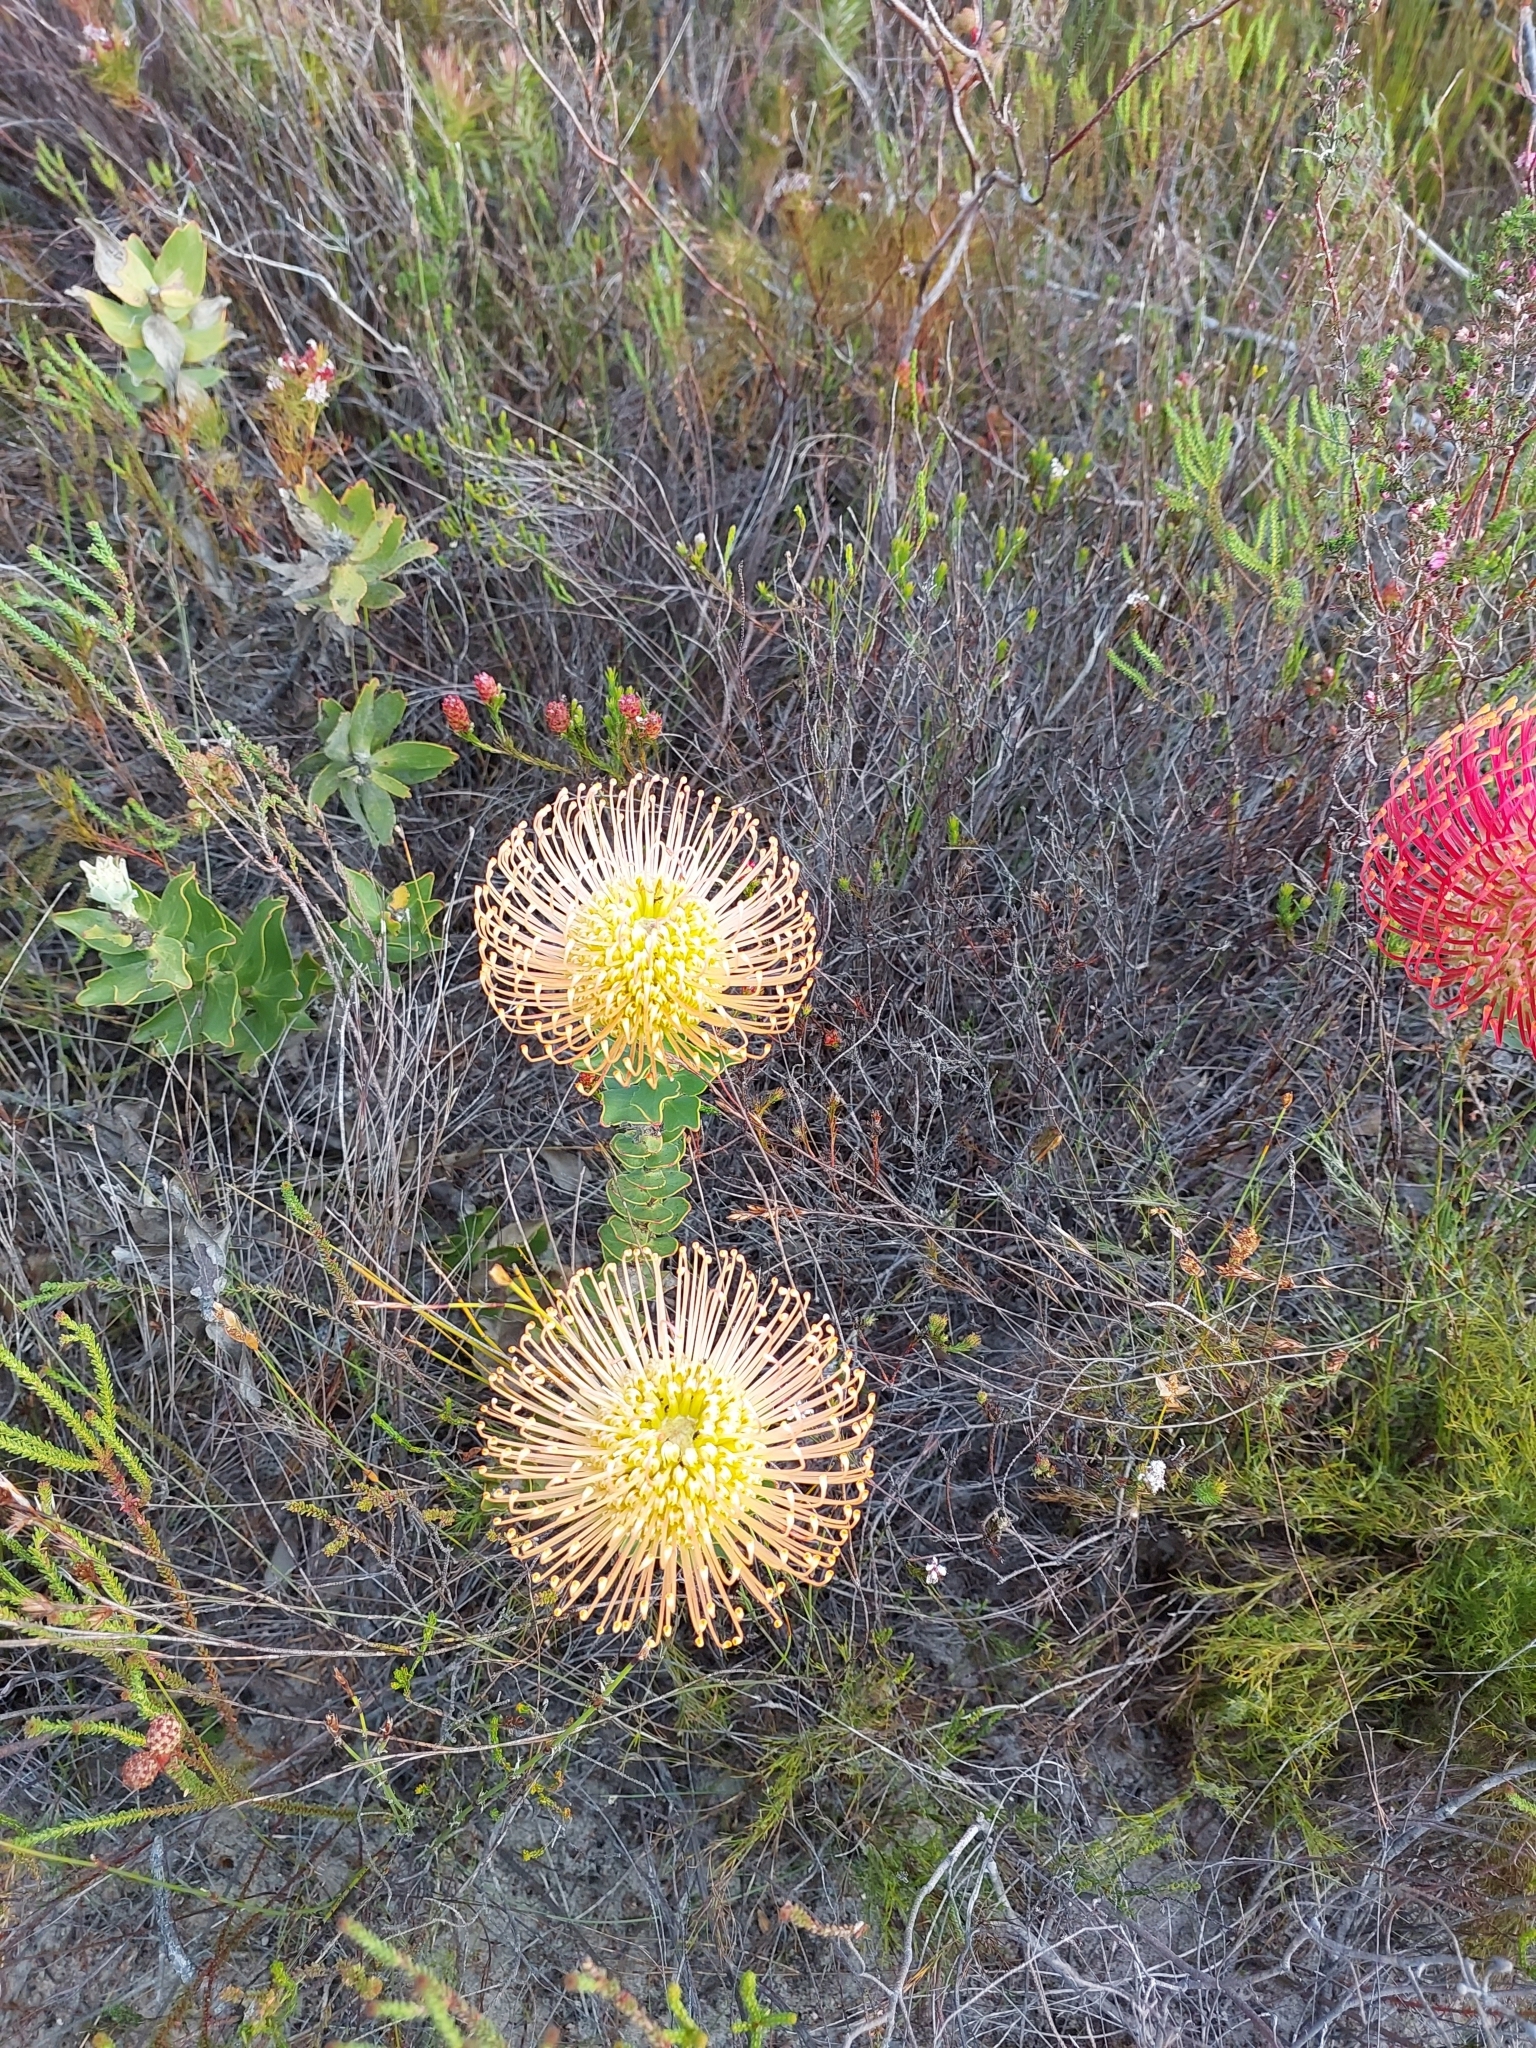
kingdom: Plantae
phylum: Tracheophyta
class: Magnoliopsida
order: Proteales
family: Proteaceae
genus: Leucospermum
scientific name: Leucospermum cordifolium
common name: Red pincushion-protea
